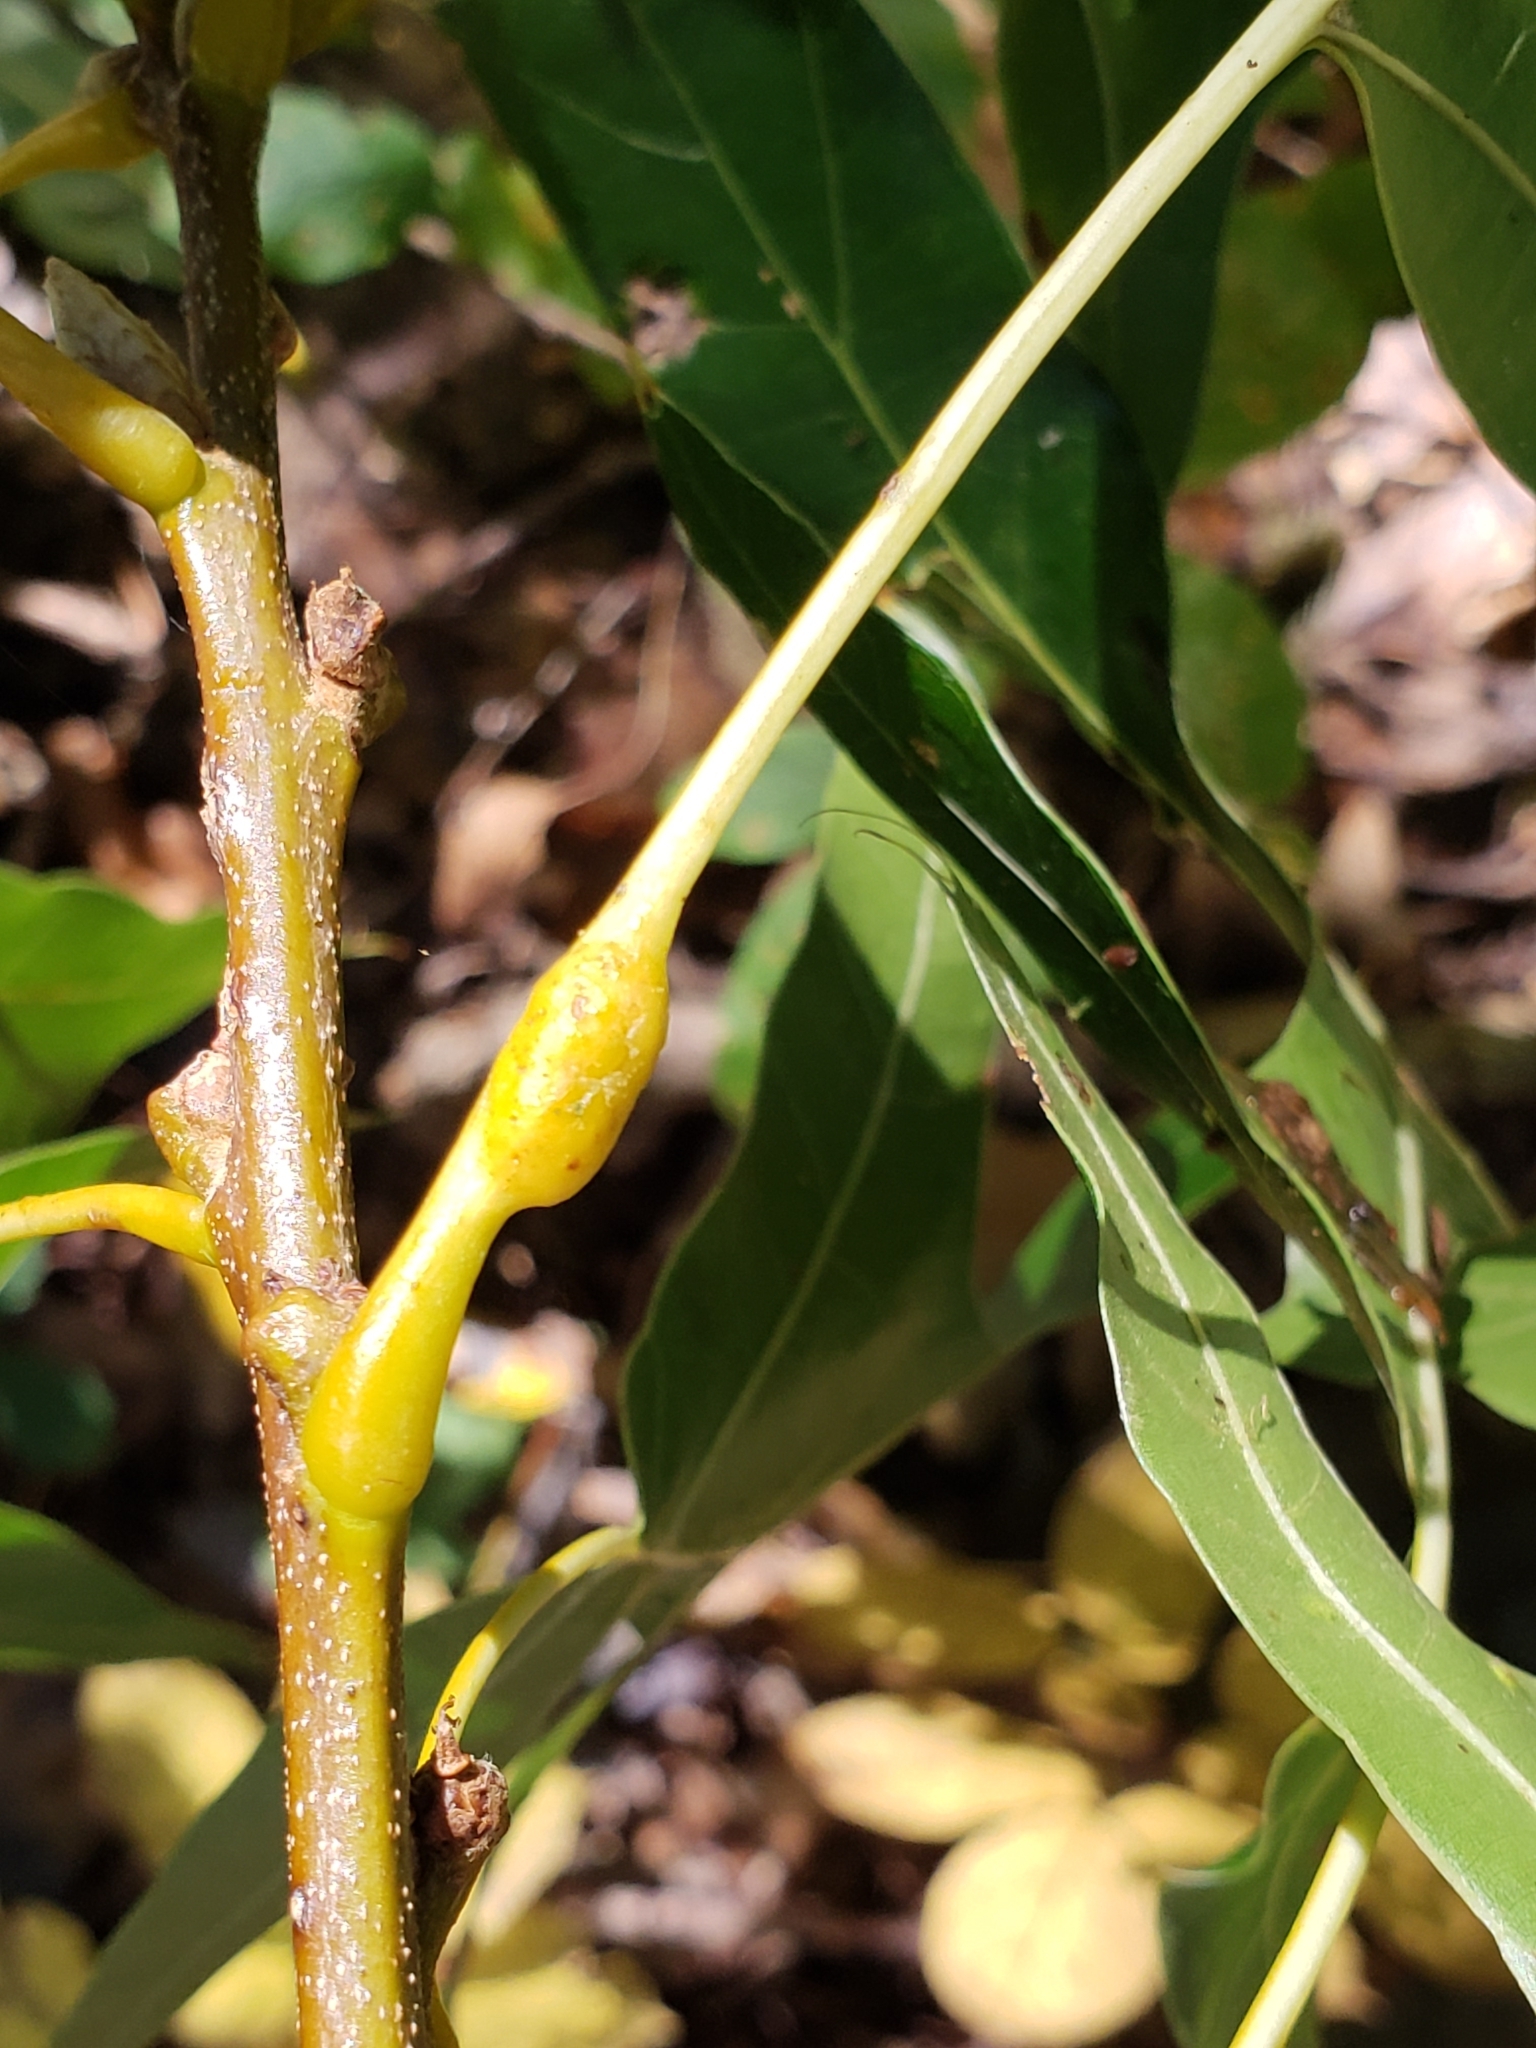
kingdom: Animalia
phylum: Arthropoda
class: Insecta
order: Hymenoptera
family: Cynipidae
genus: Melikaiella
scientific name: Melikaiella tumifica
